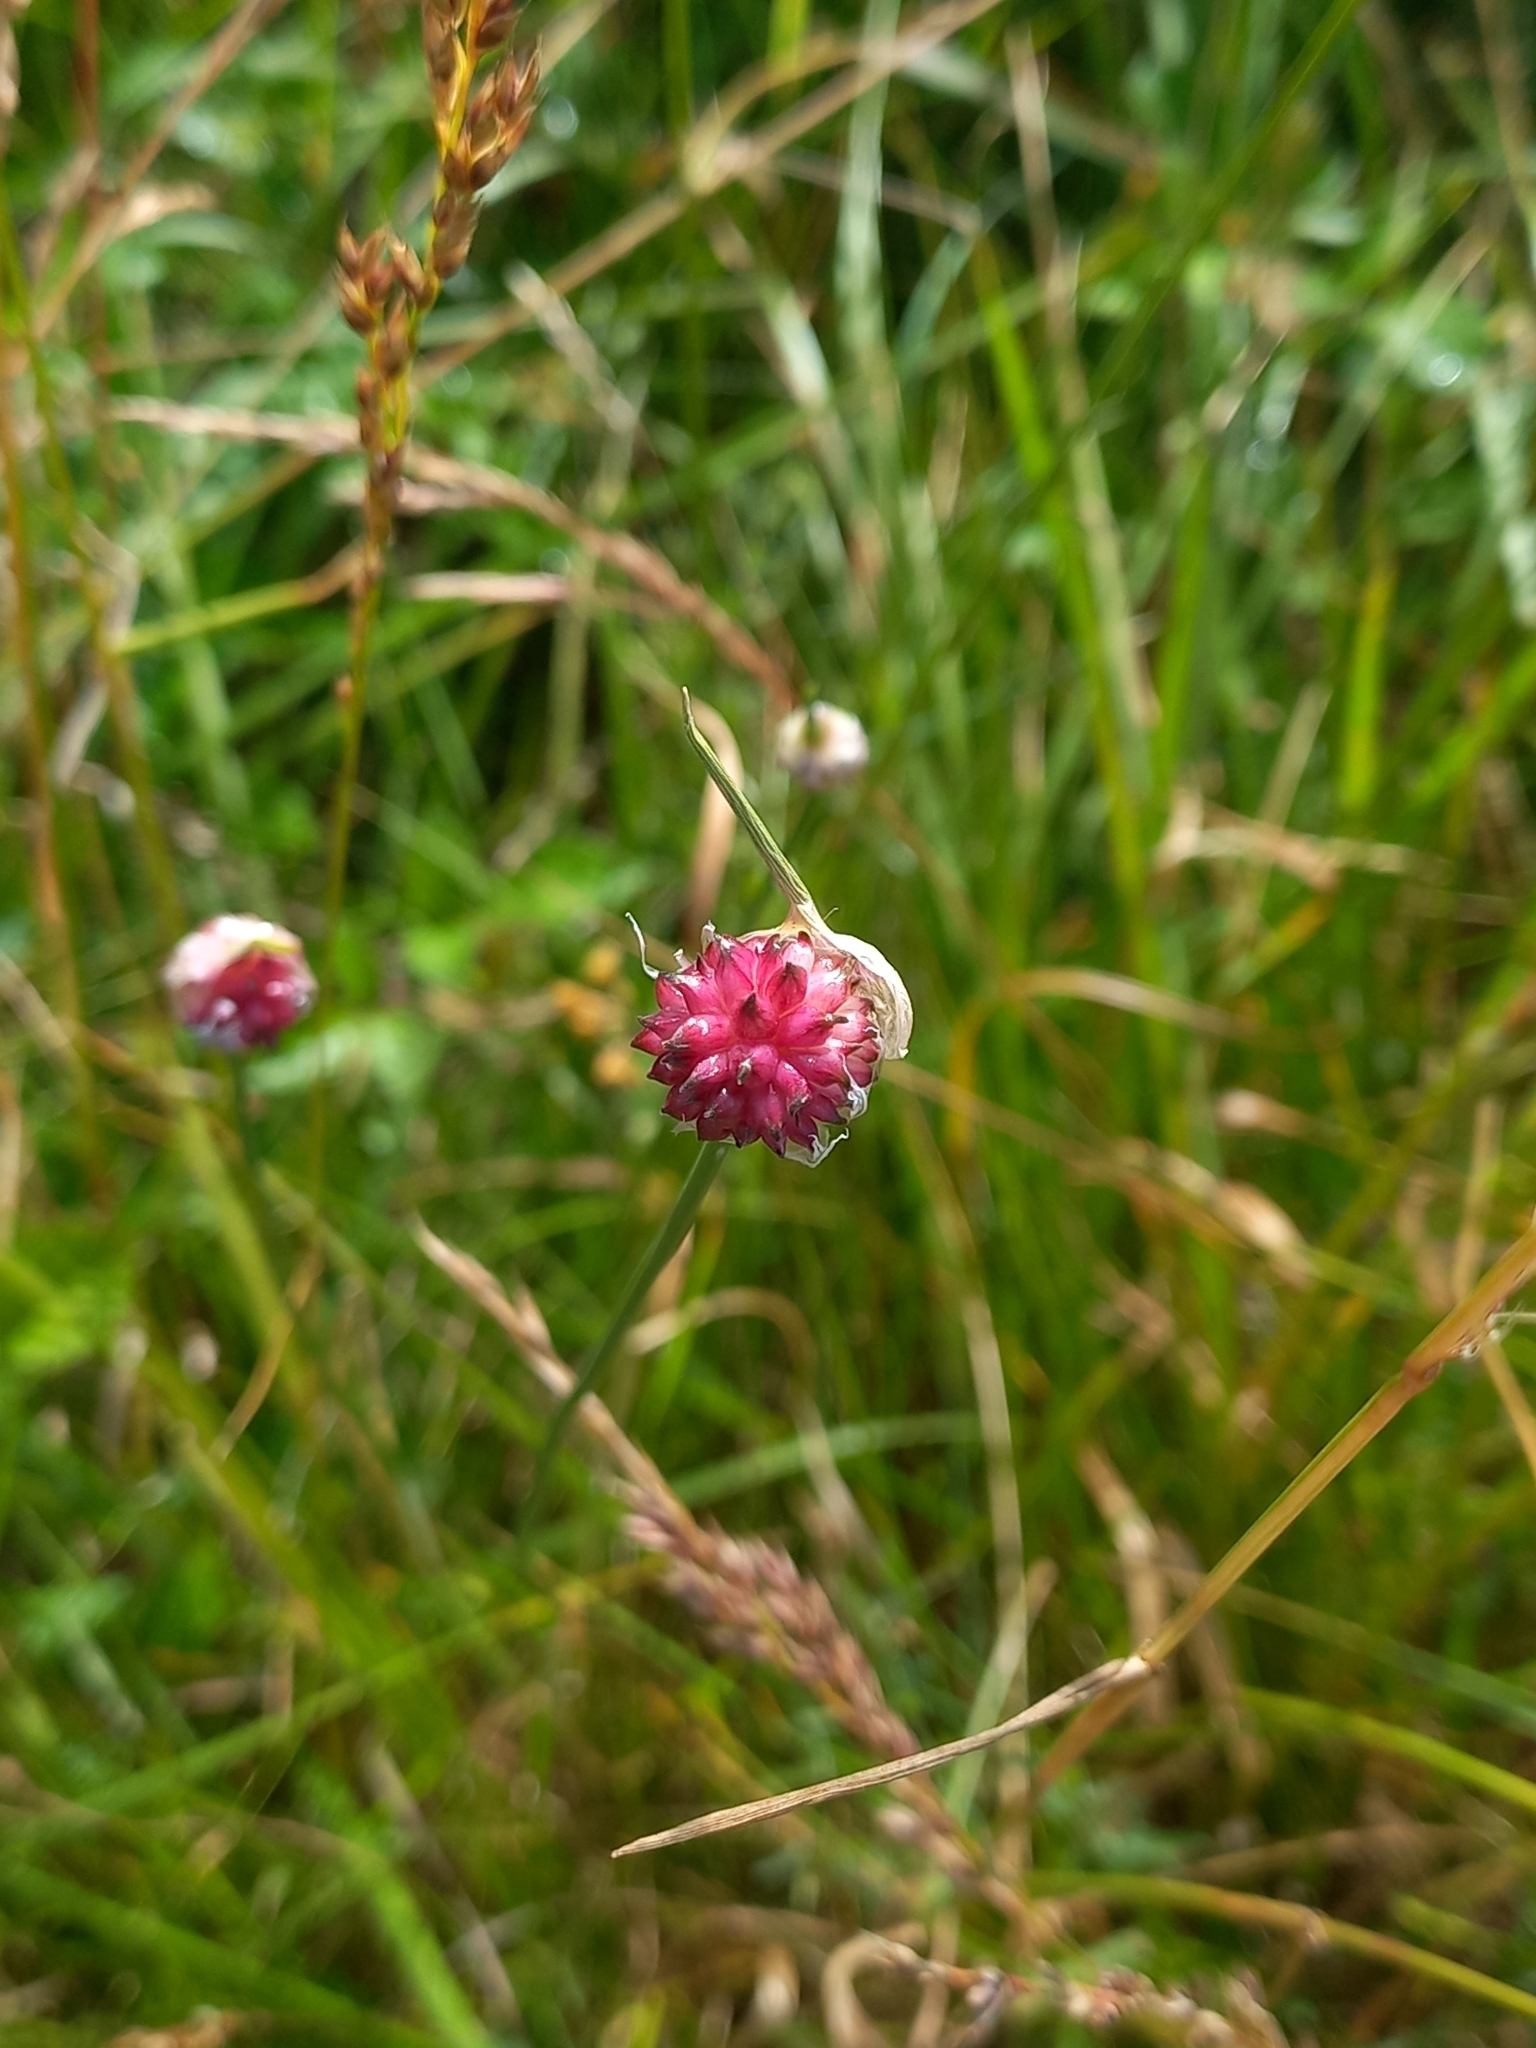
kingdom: Plantae
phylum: Tracheophyta
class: Liliopsida
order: Asparagales
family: Amaryllidaceae
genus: Allium
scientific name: Allium vineale
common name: Crow garlic
